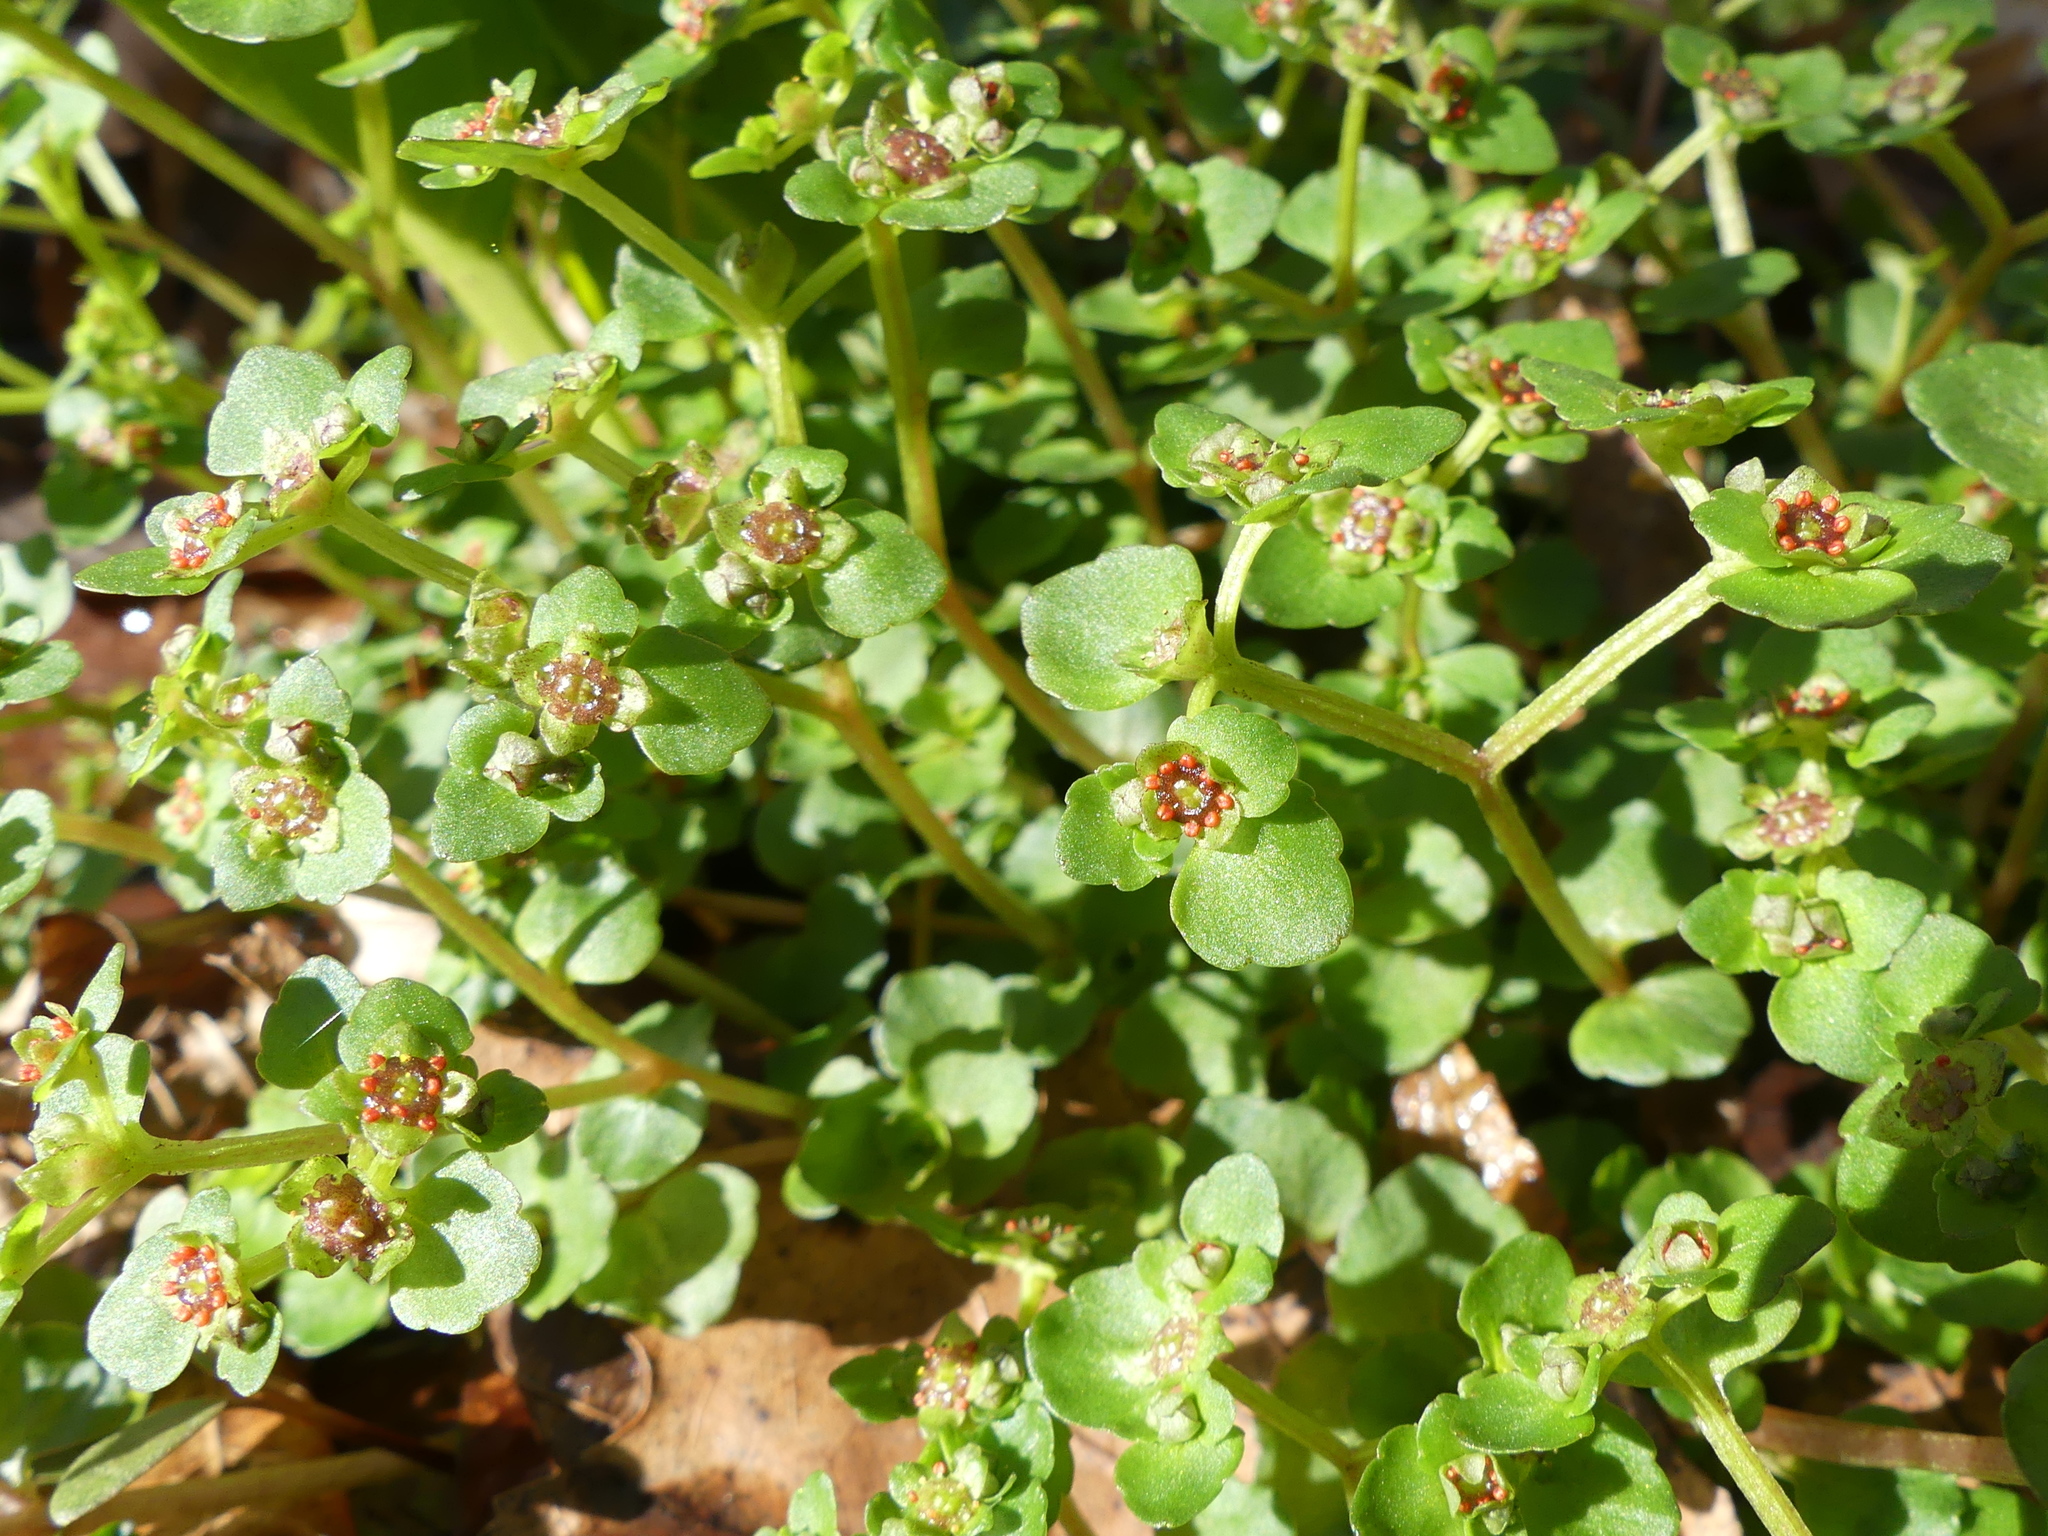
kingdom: Plantae
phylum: Tracheophyta
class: Magnoliopsida
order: Saxifragales
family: Saxifragaceae
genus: Chrysosplenium
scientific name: Chrysosplenium americanum
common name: American golden-saxifrage
